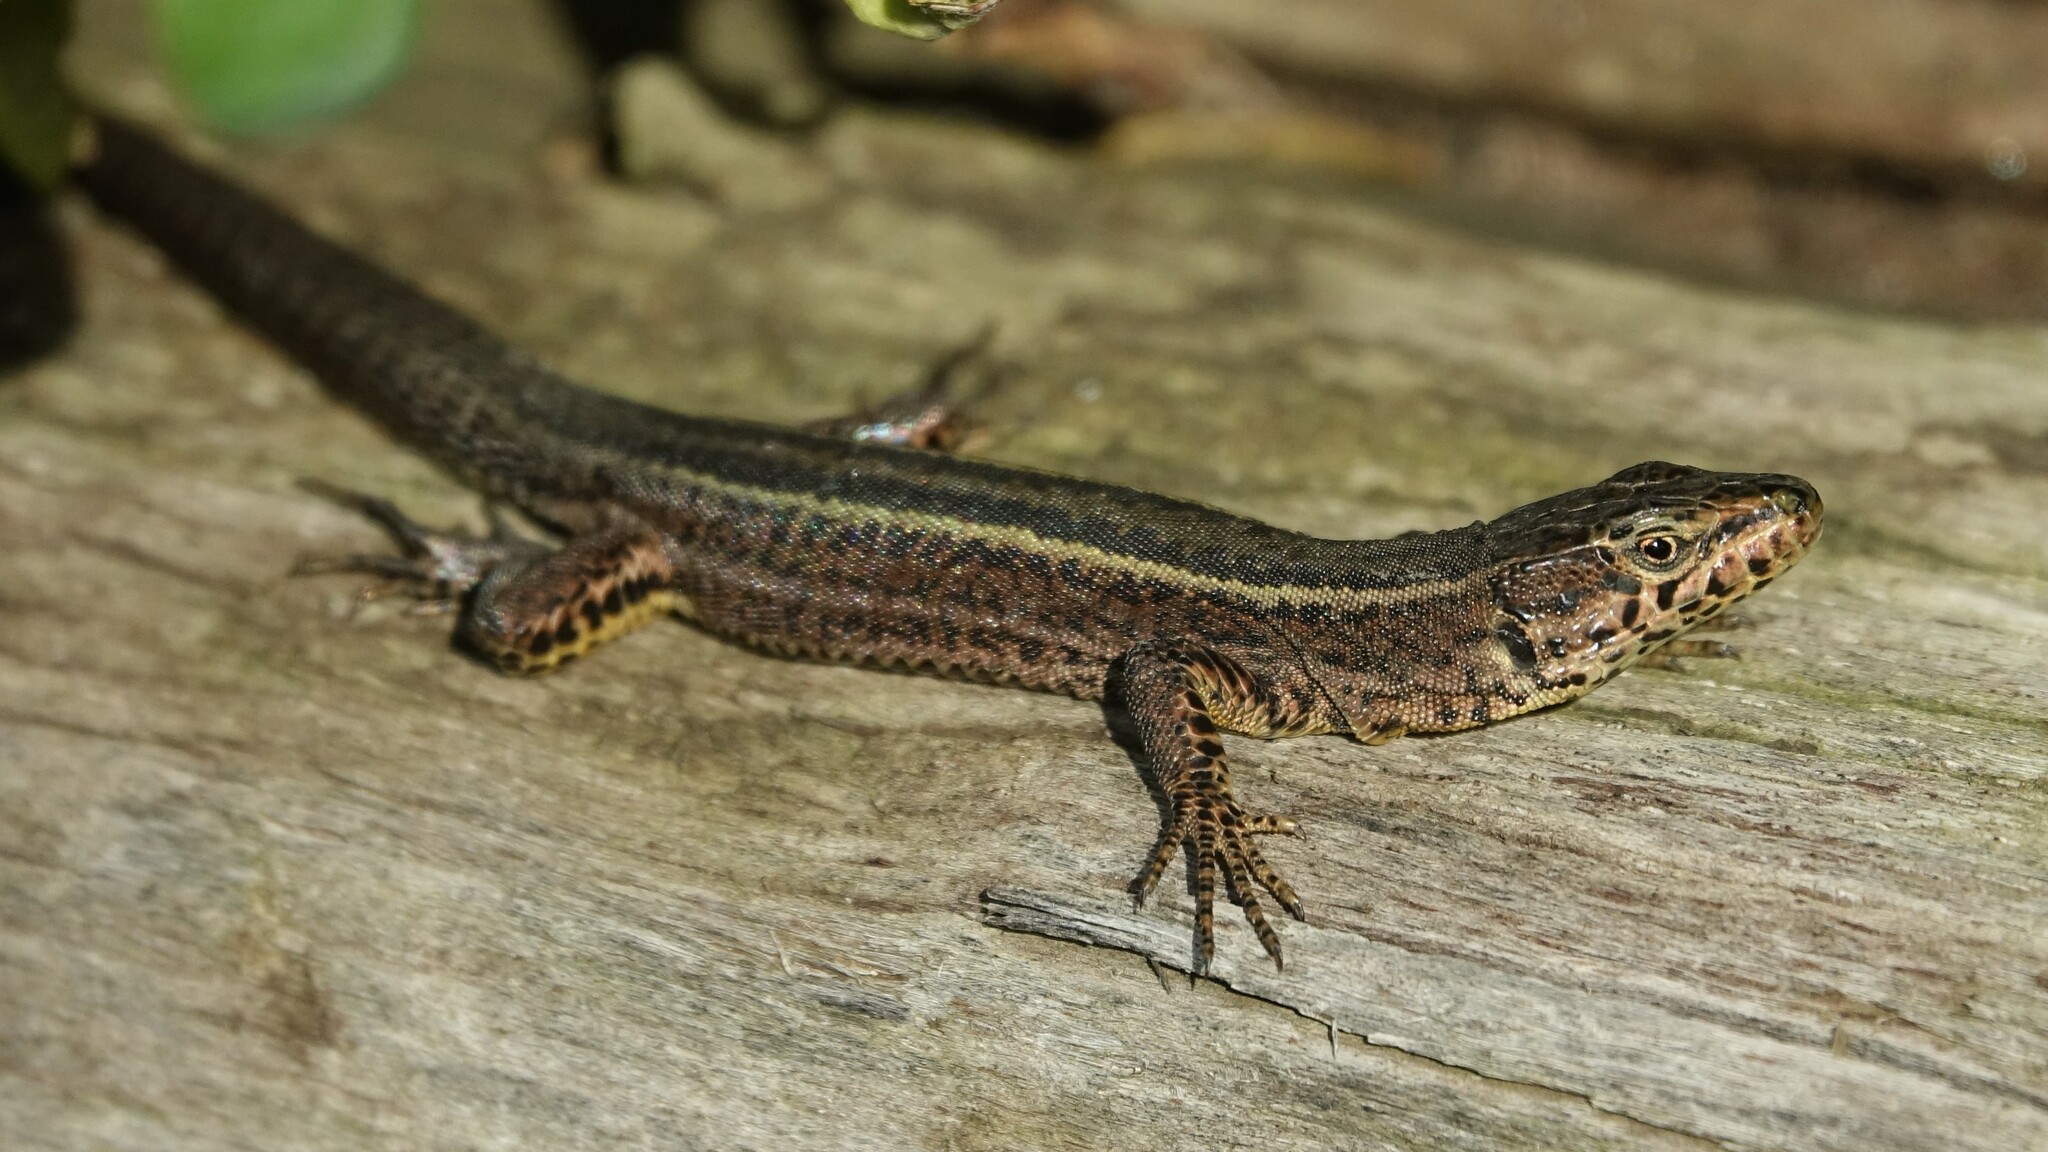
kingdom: Animalia
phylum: Chordata
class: Squamata
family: Lacertidae
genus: Podarcis
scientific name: Podarcis bocagei
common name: Bocage's wall lizard
